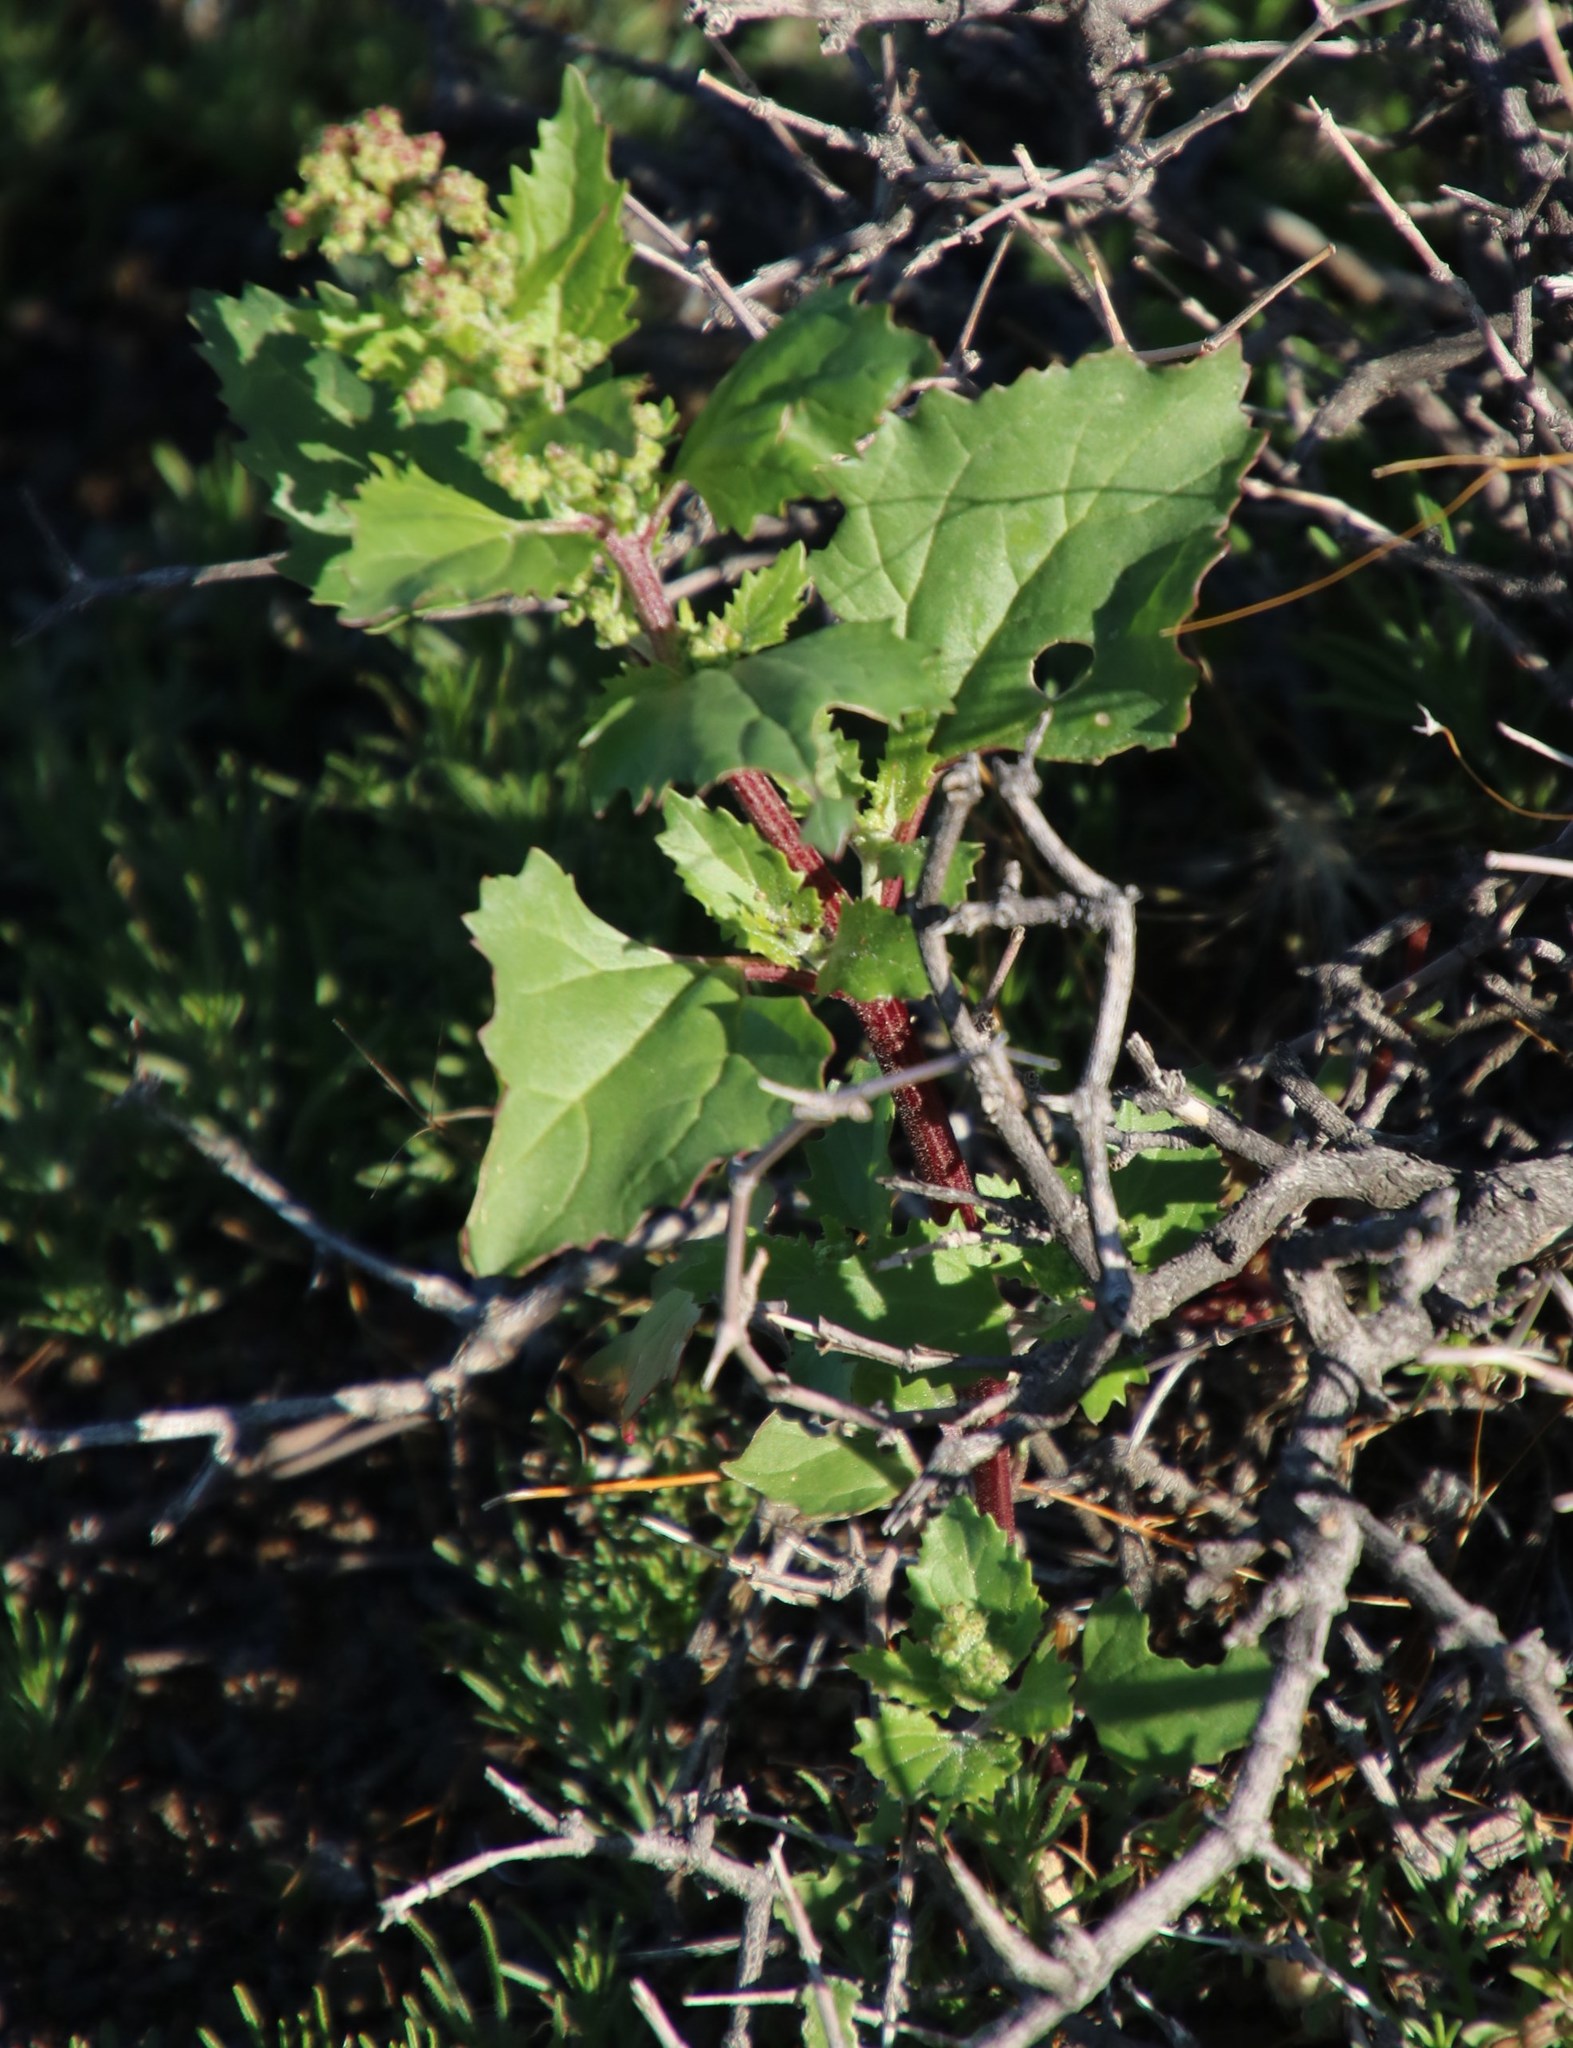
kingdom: Plantae
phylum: Tracheophyta
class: Magnoliopsida
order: Caryophyllales
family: Amaranthaceae
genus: Chenopodiastrum
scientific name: Chenopodiastrum murale
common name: Sowbane
